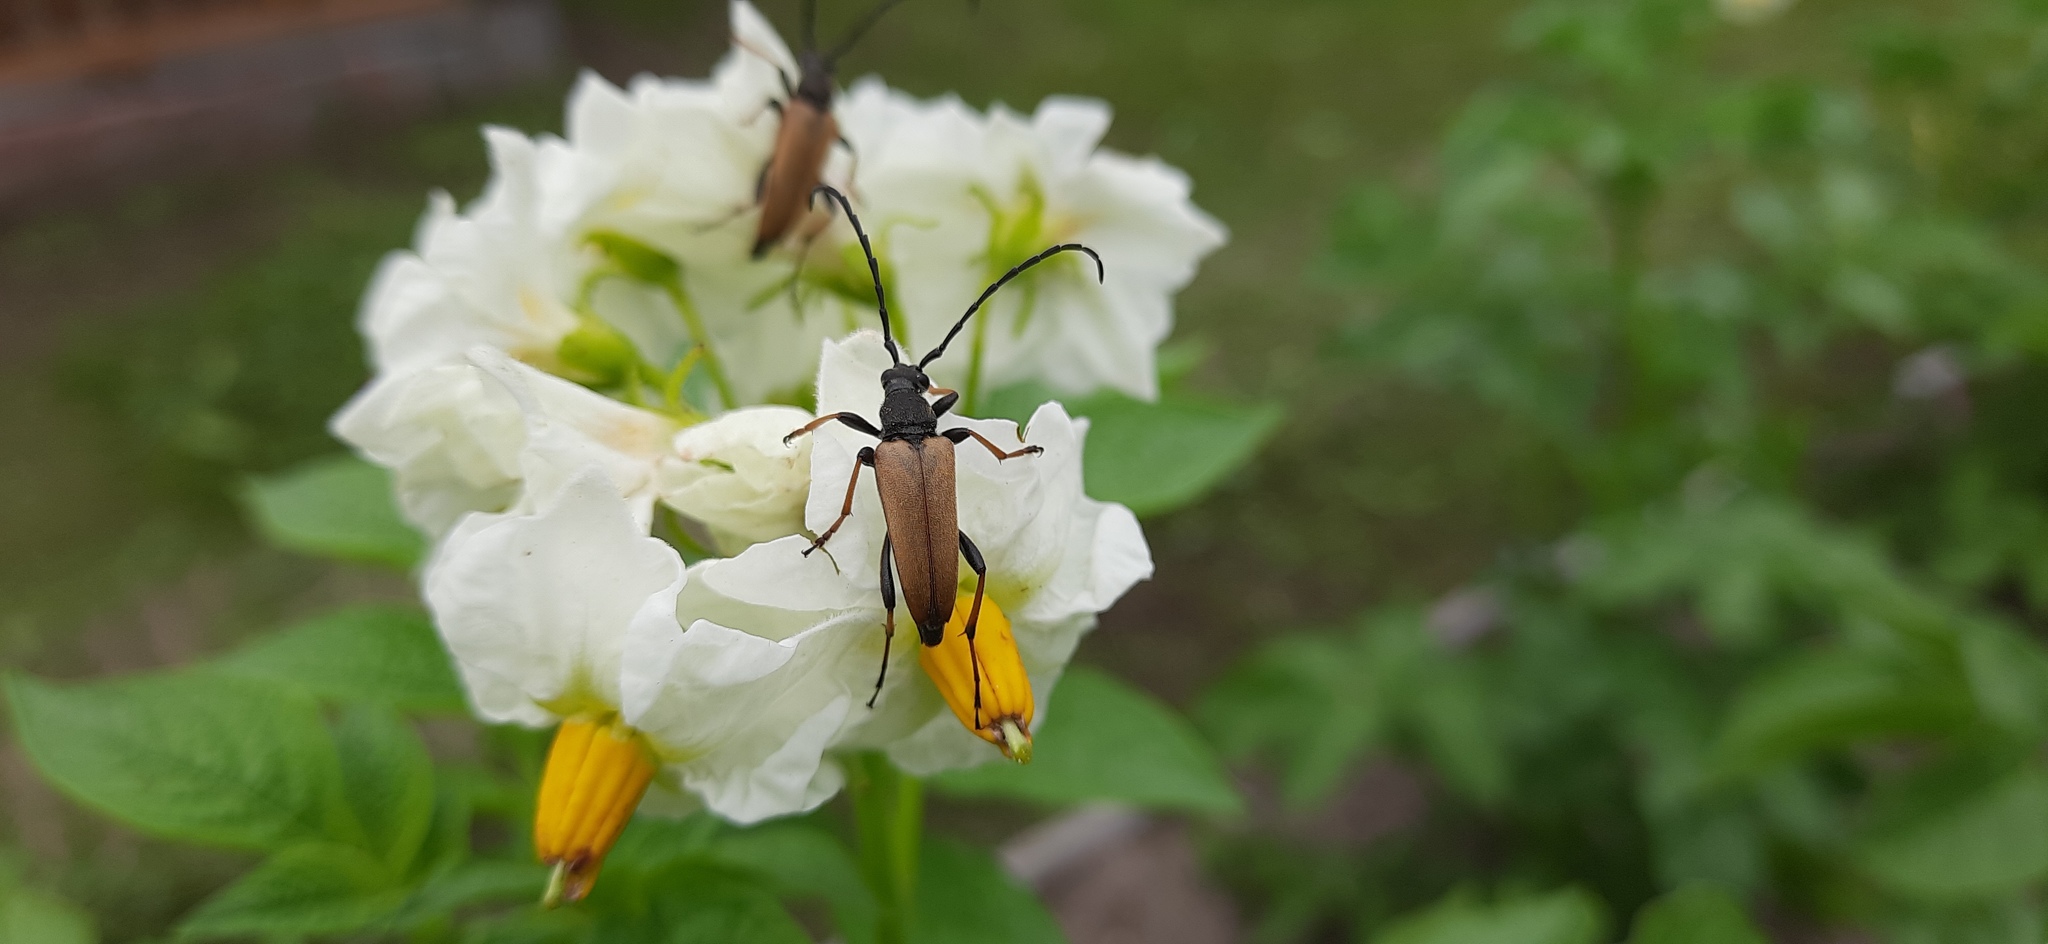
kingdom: Animalia
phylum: Arthropoda
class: Insecta
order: Coleoptera
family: Cerambycidae
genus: Stictoleptura
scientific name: Stictoleptura rubra
